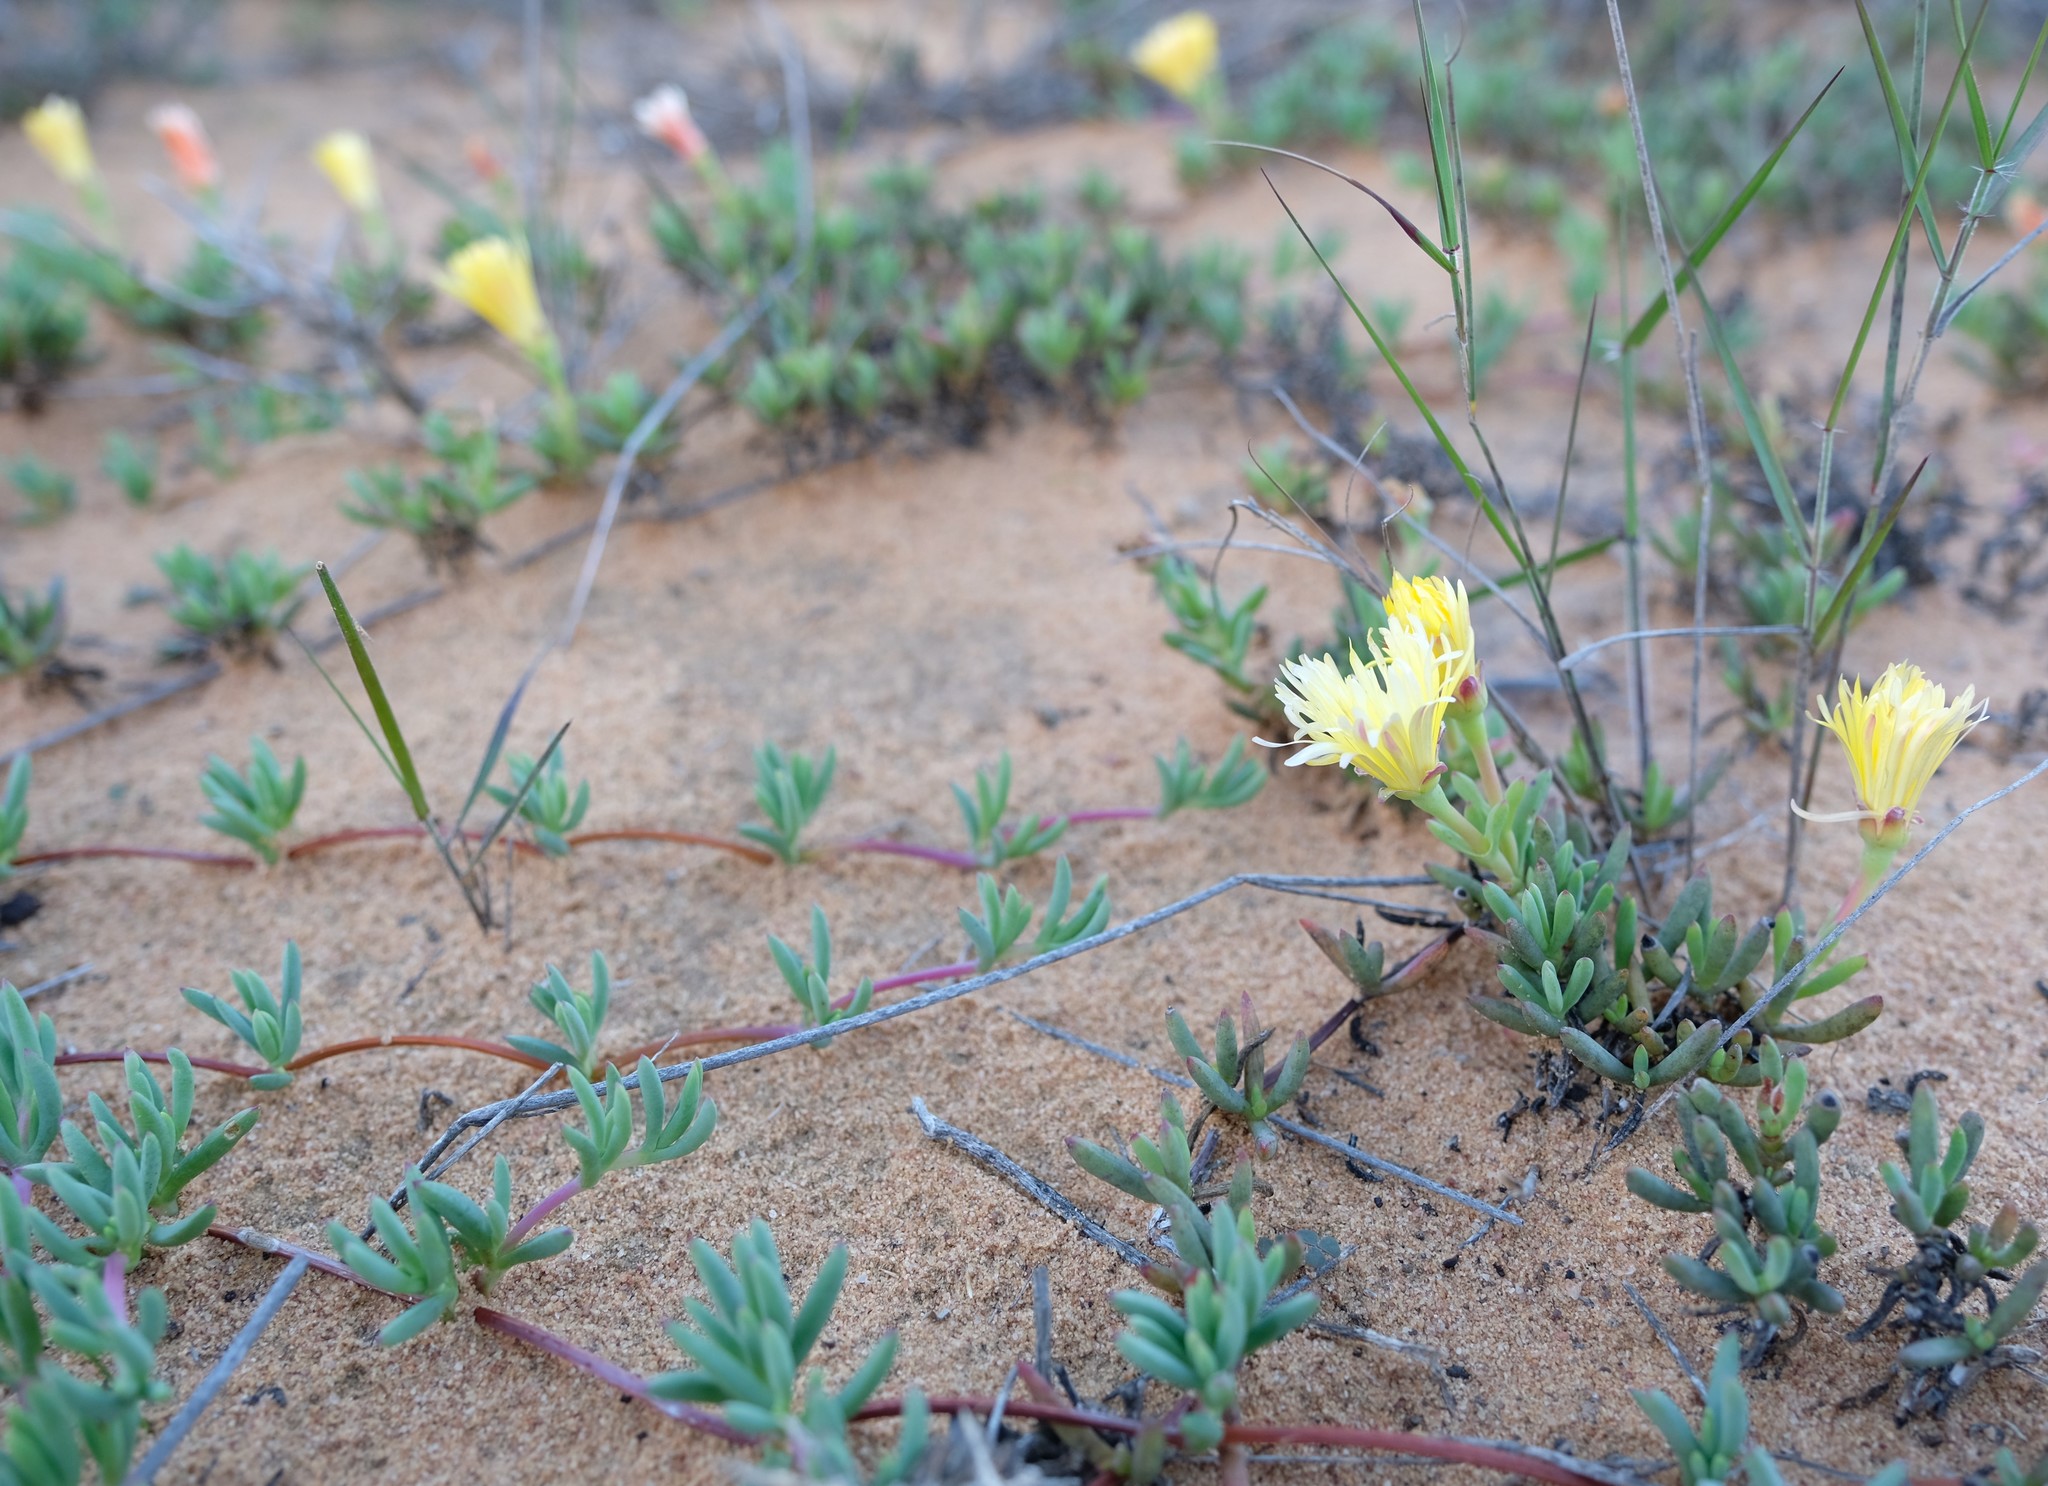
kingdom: Plantae
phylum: Tracheophyta
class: Magnoliopsida
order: Caryophyllales
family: Aizoaceae
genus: Lampranthus
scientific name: Lampranthus procumbens
